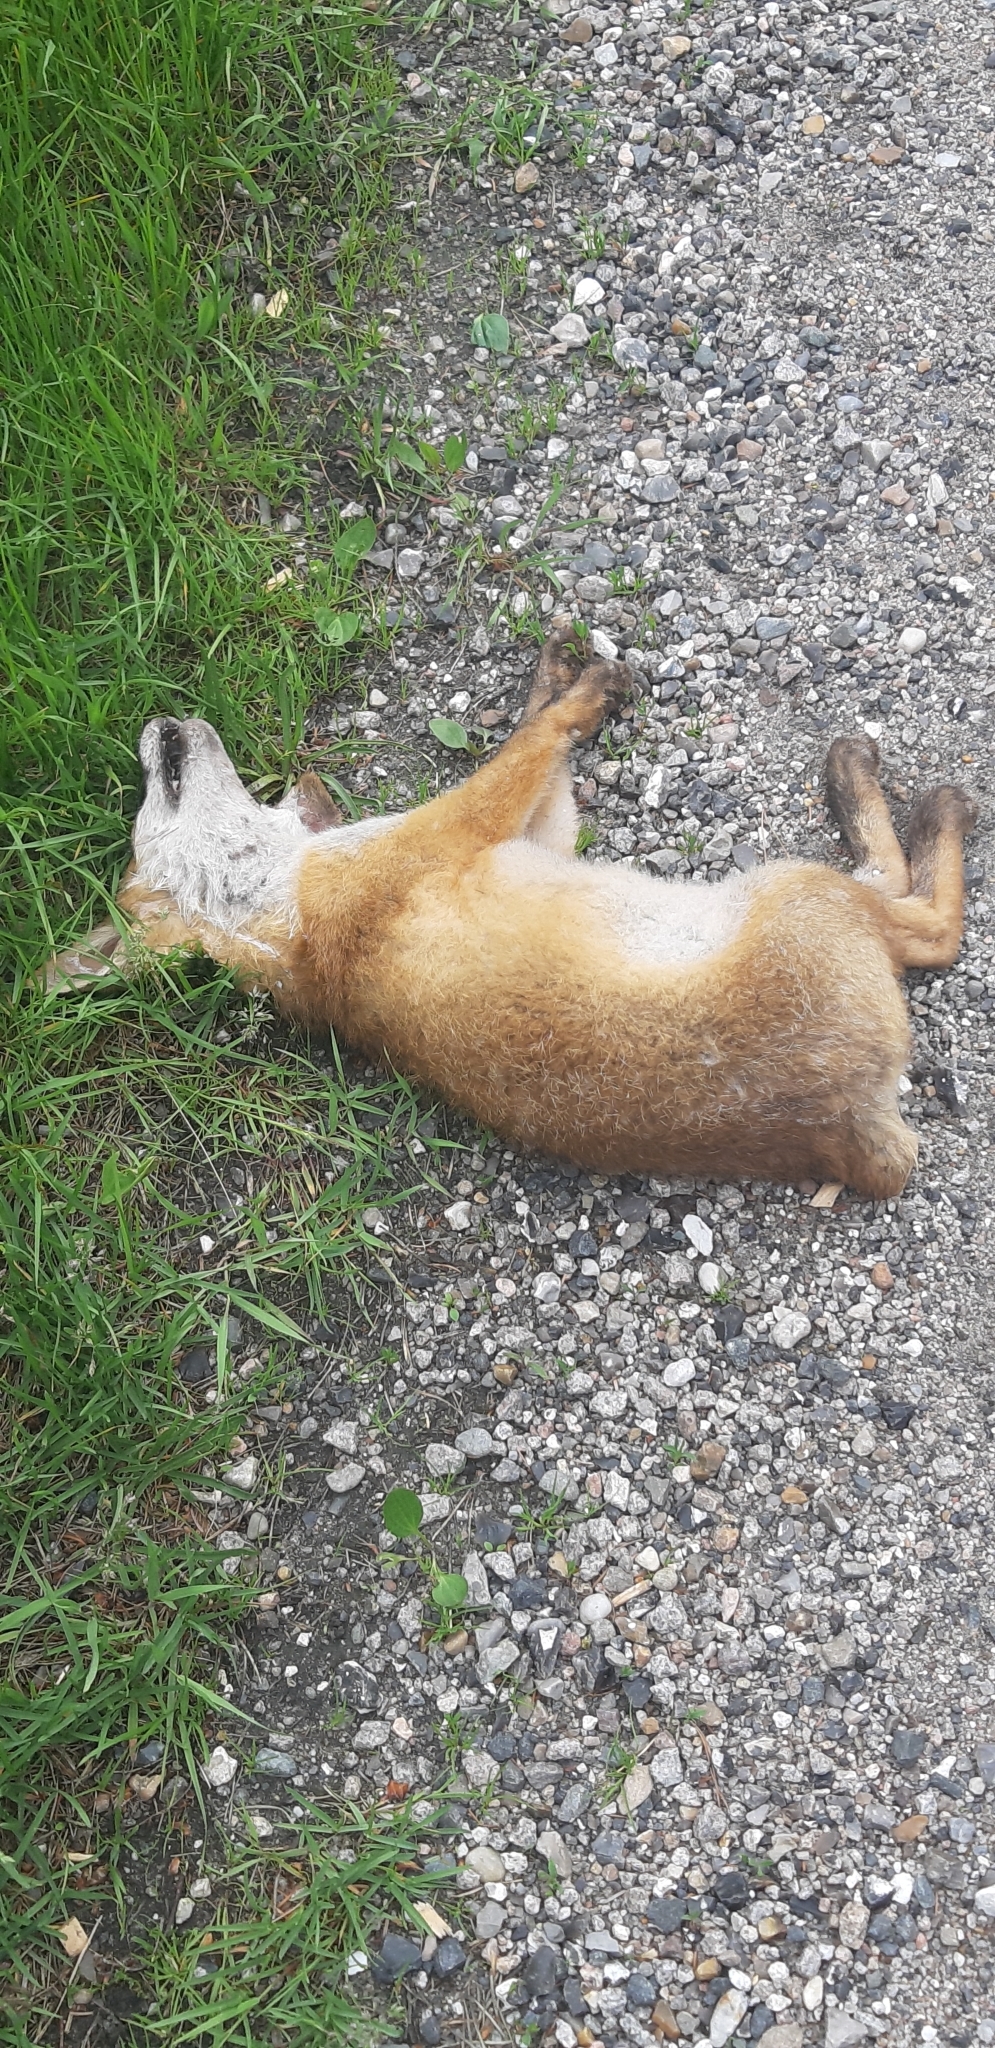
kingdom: Animalia
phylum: Chordata
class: Mammalia
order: Carnivora
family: Canidae
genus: Vulpes
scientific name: Vulpes vulpes
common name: Red fox
